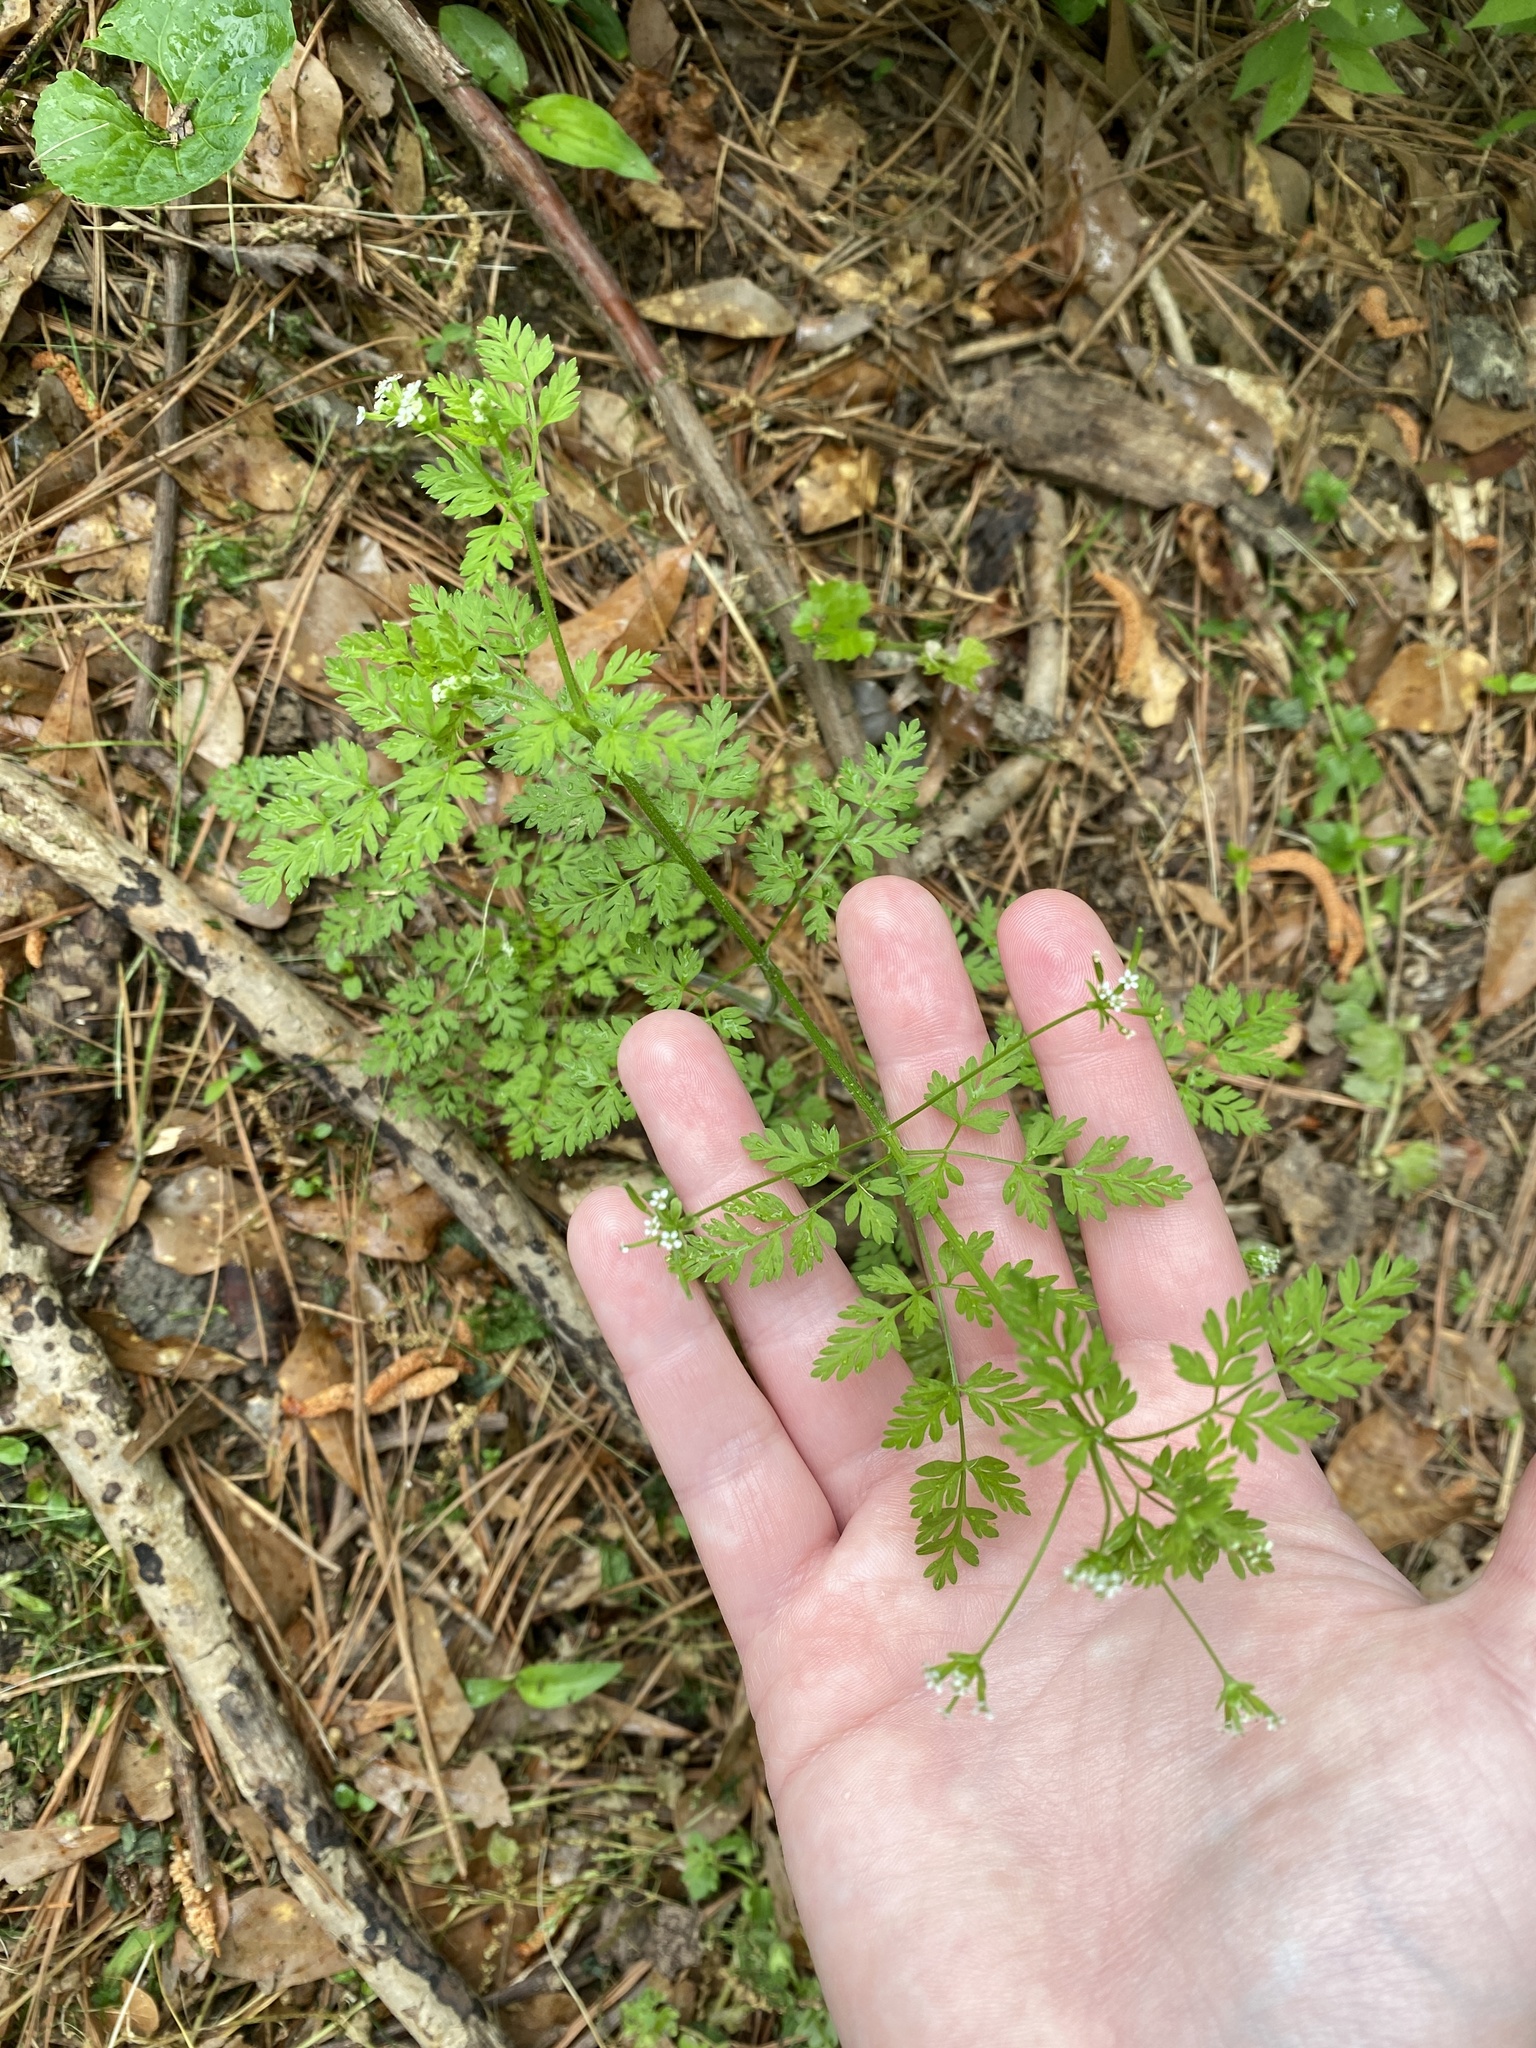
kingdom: Plantae
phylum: Tracheophyta
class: Magnoliopsida
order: Apiales
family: Apiaceae
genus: Chaerophyllum
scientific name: Chaerophyllum tainturieri
